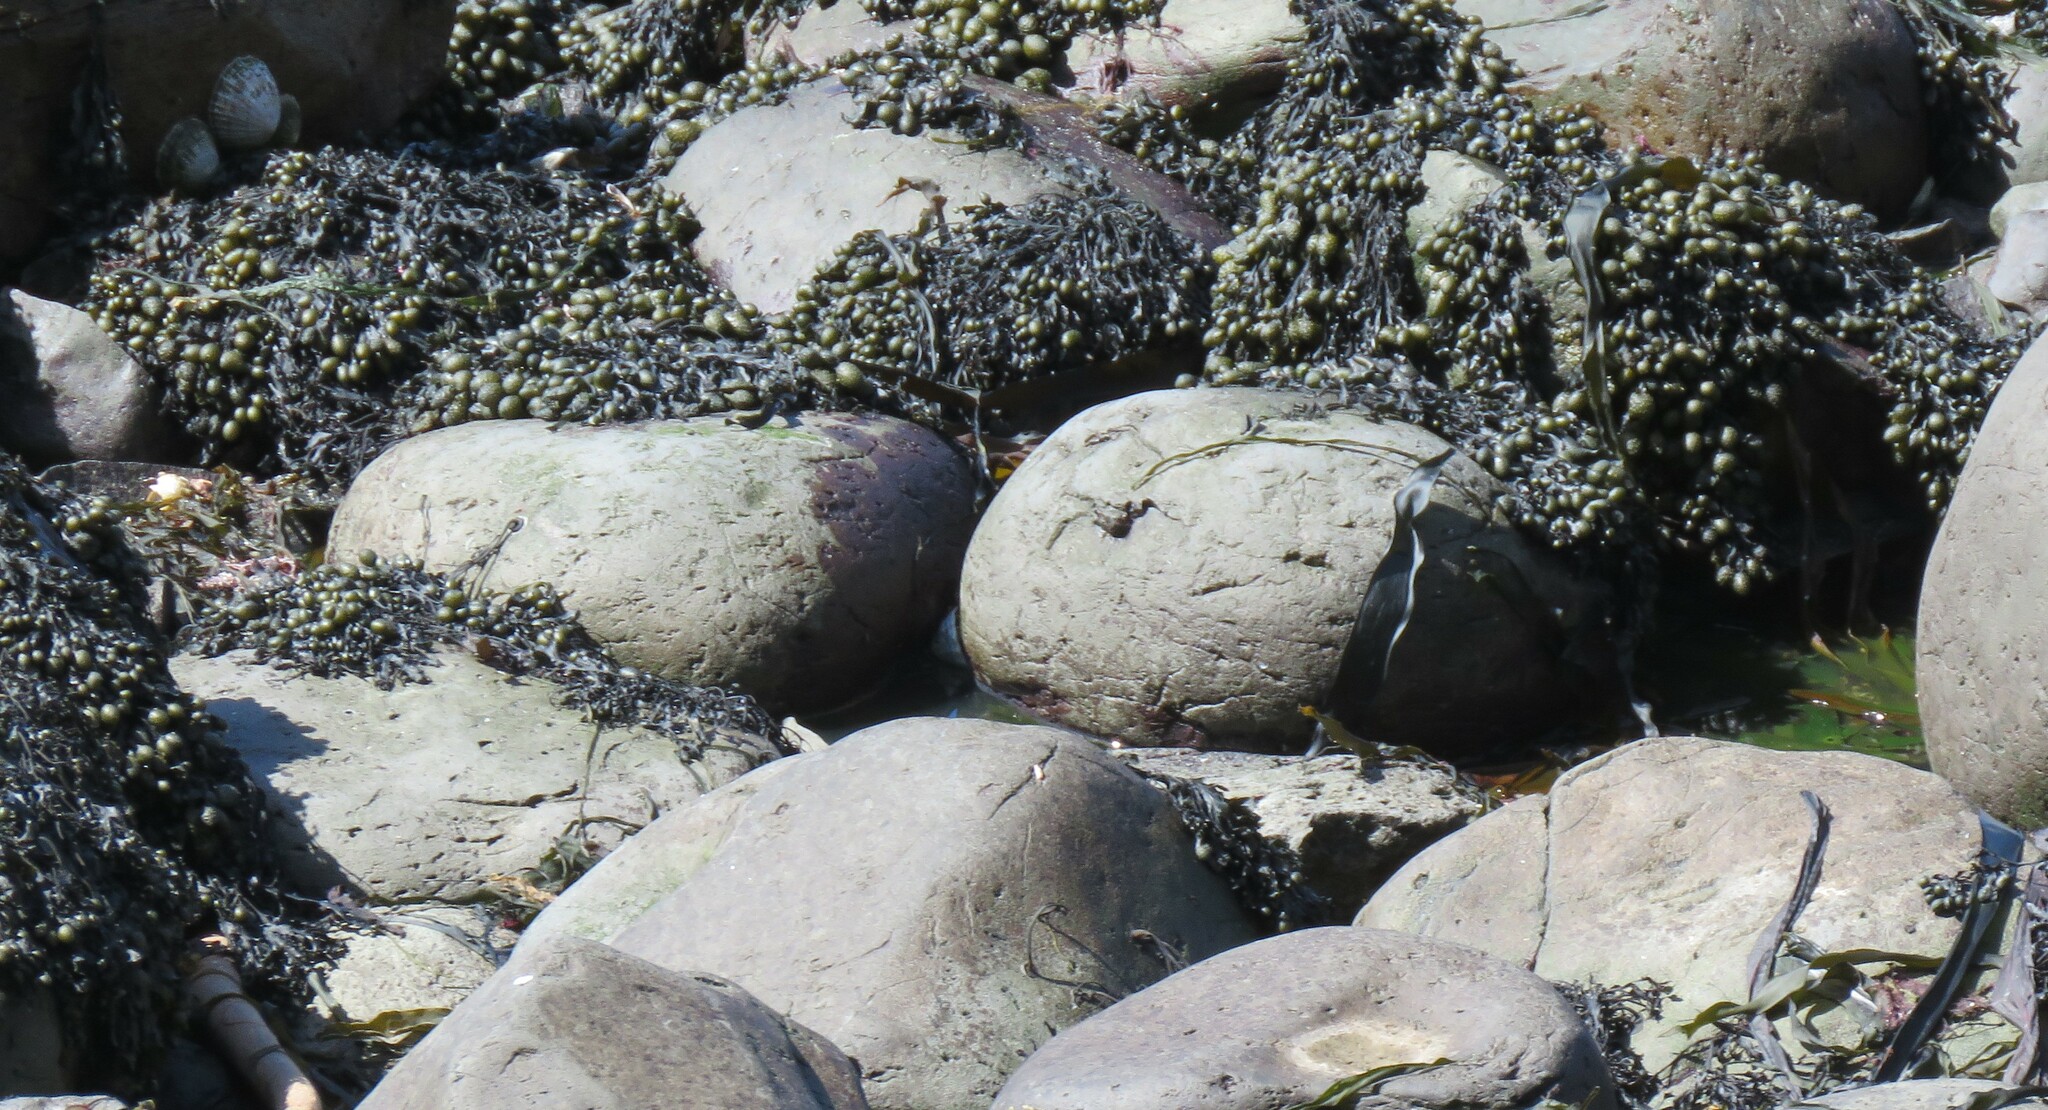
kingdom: Chromista
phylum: Ochrophyta
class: Phaeophyceae
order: Fucales
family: Fucaceae
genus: Fucus
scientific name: Fucus vesiculosus
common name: Bladder wrack
